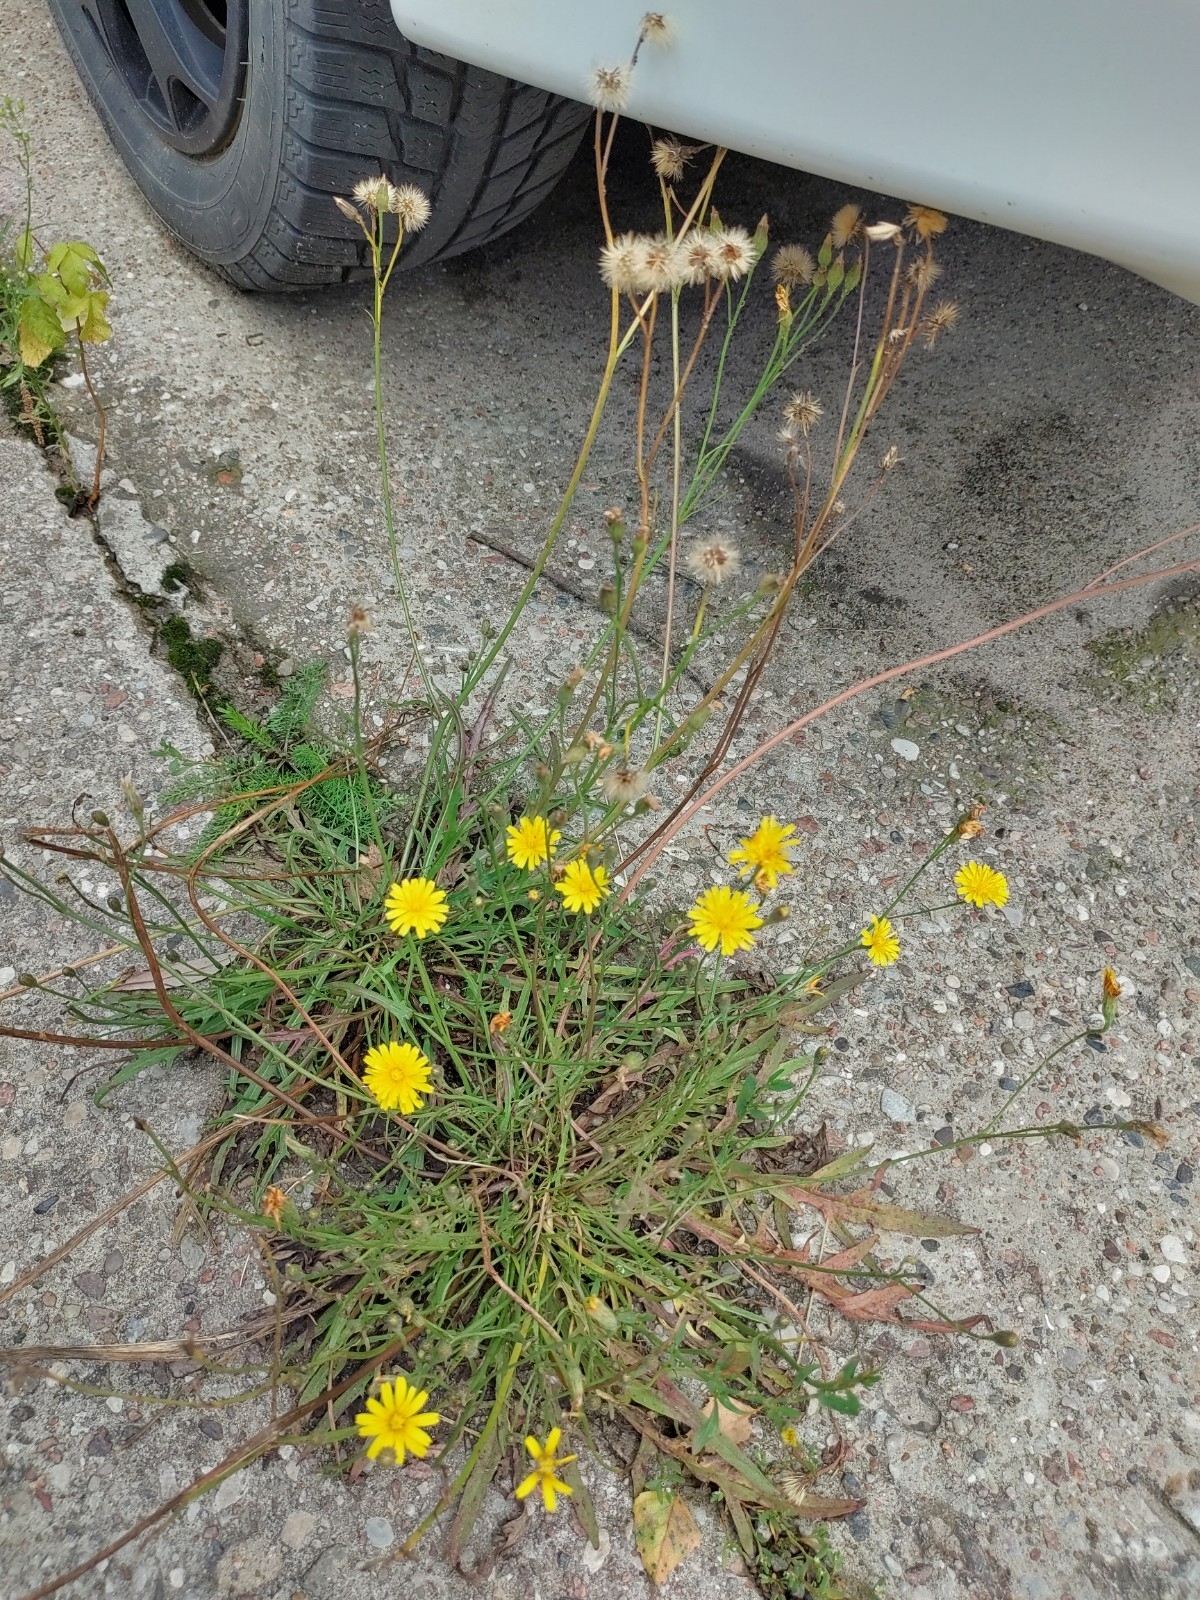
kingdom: Plantae
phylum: Tracheophyta
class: Magnoliopsida
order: Asterales
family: Asteraceae
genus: Scorzoneroides
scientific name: Scorzoneroides autumnalis
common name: Autumn hawkbit
